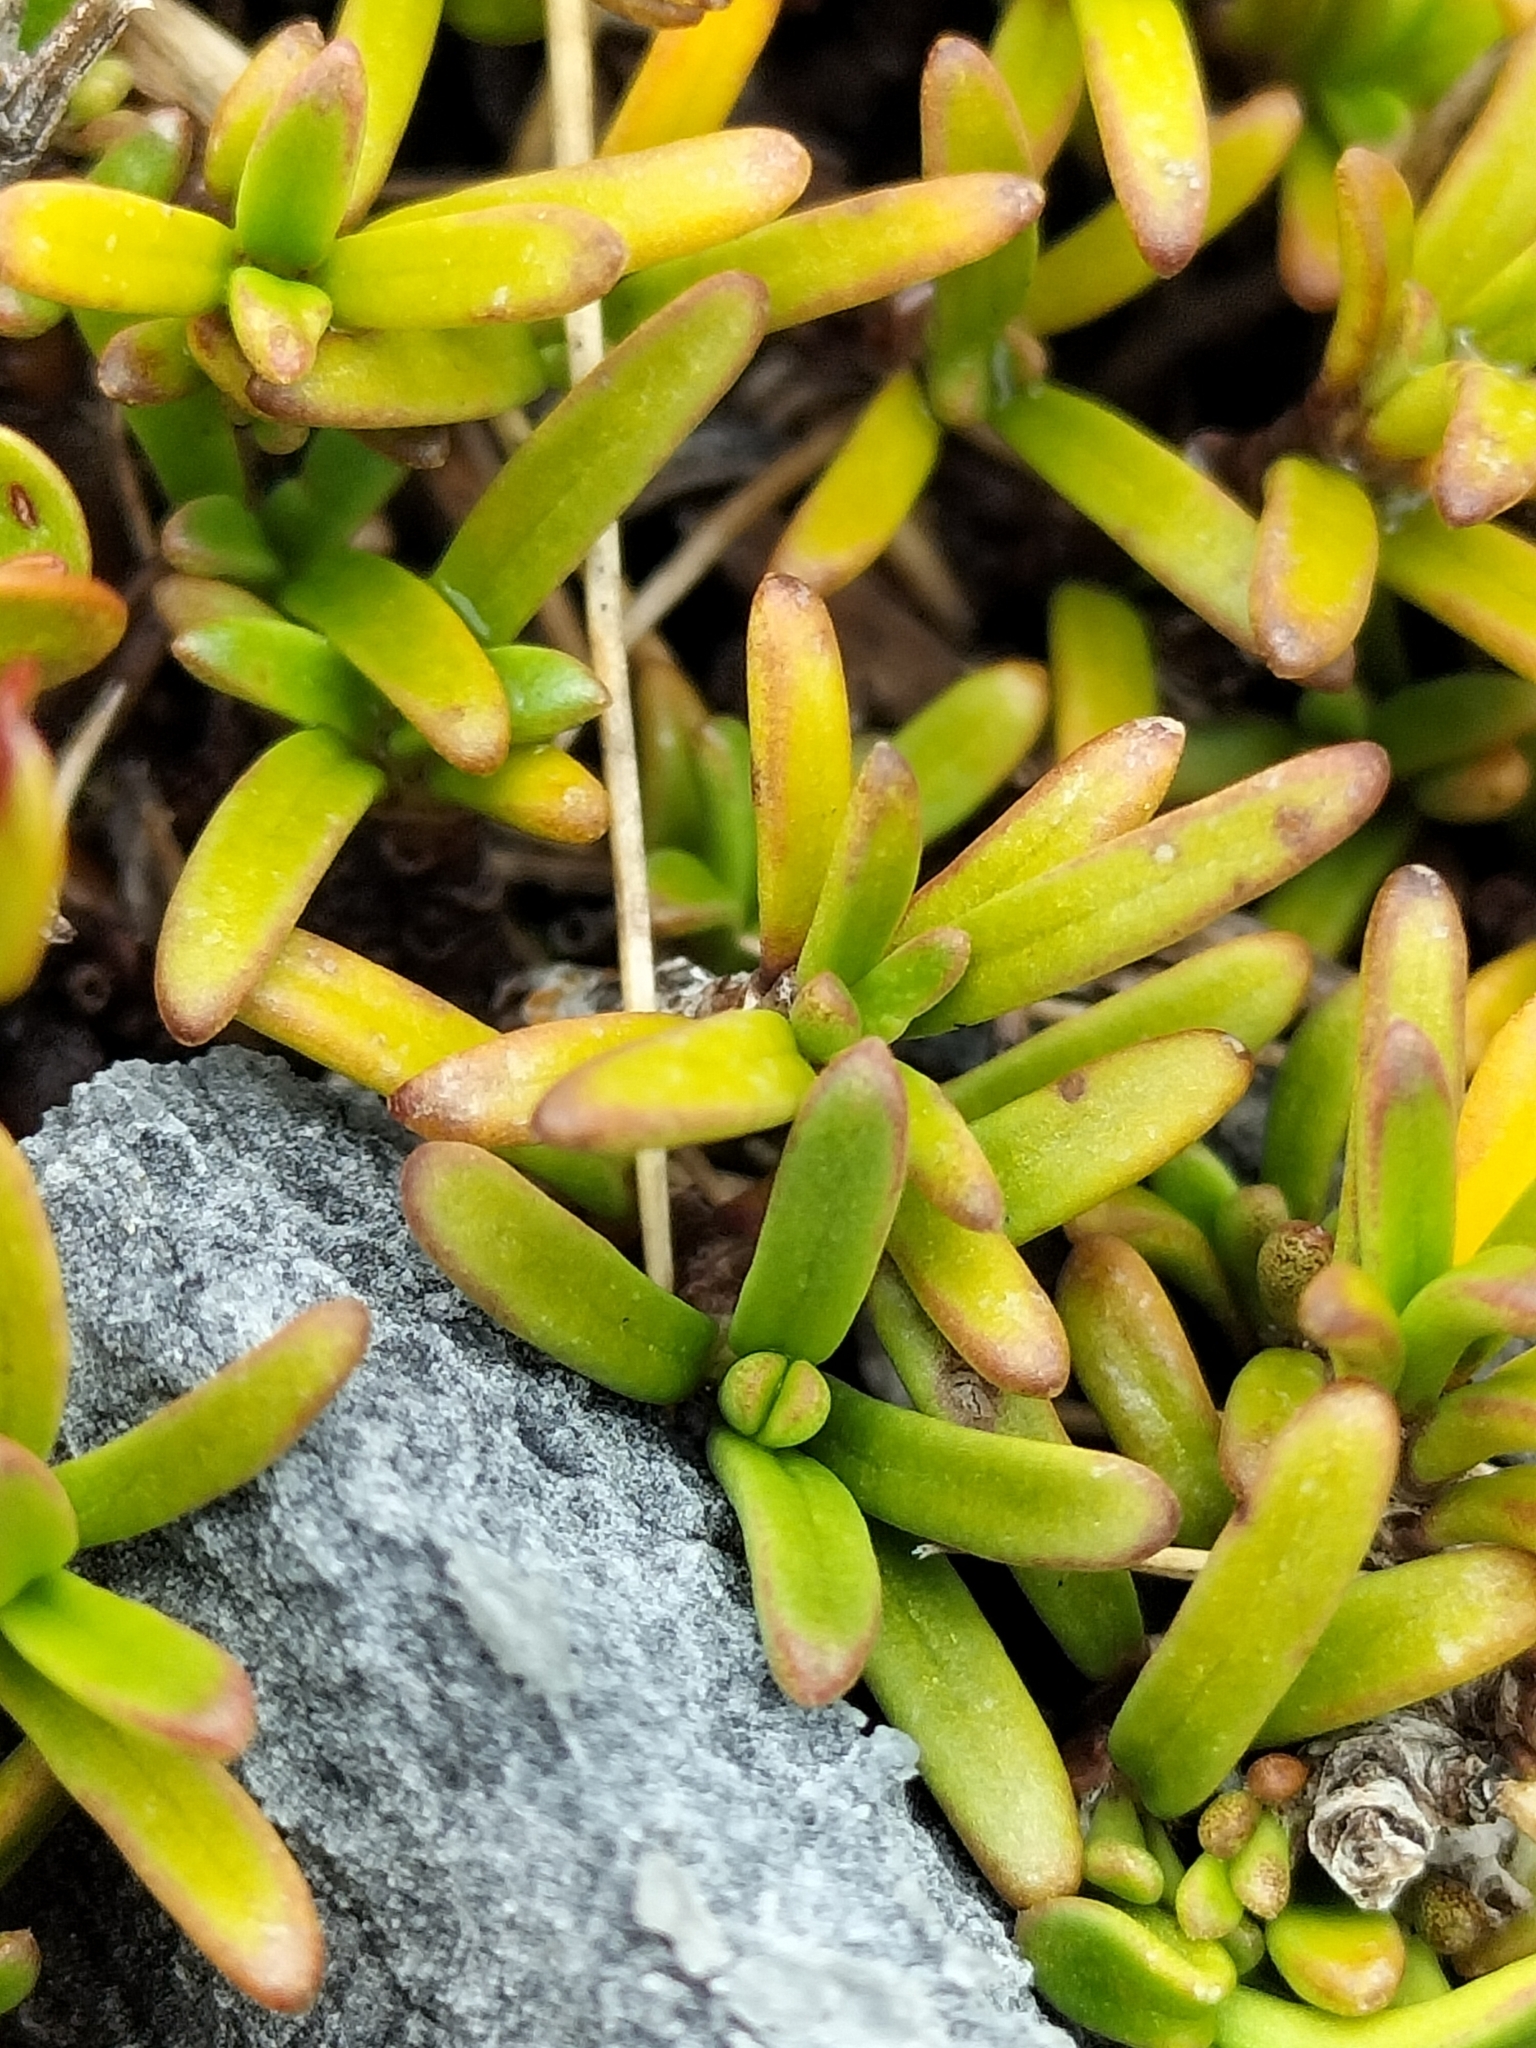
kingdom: Plantae
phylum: Tracheophyta
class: Magnoliopsida
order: Gentianales
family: Rubiaceae
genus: Coprosma
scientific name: Coprosma cheesemanii
